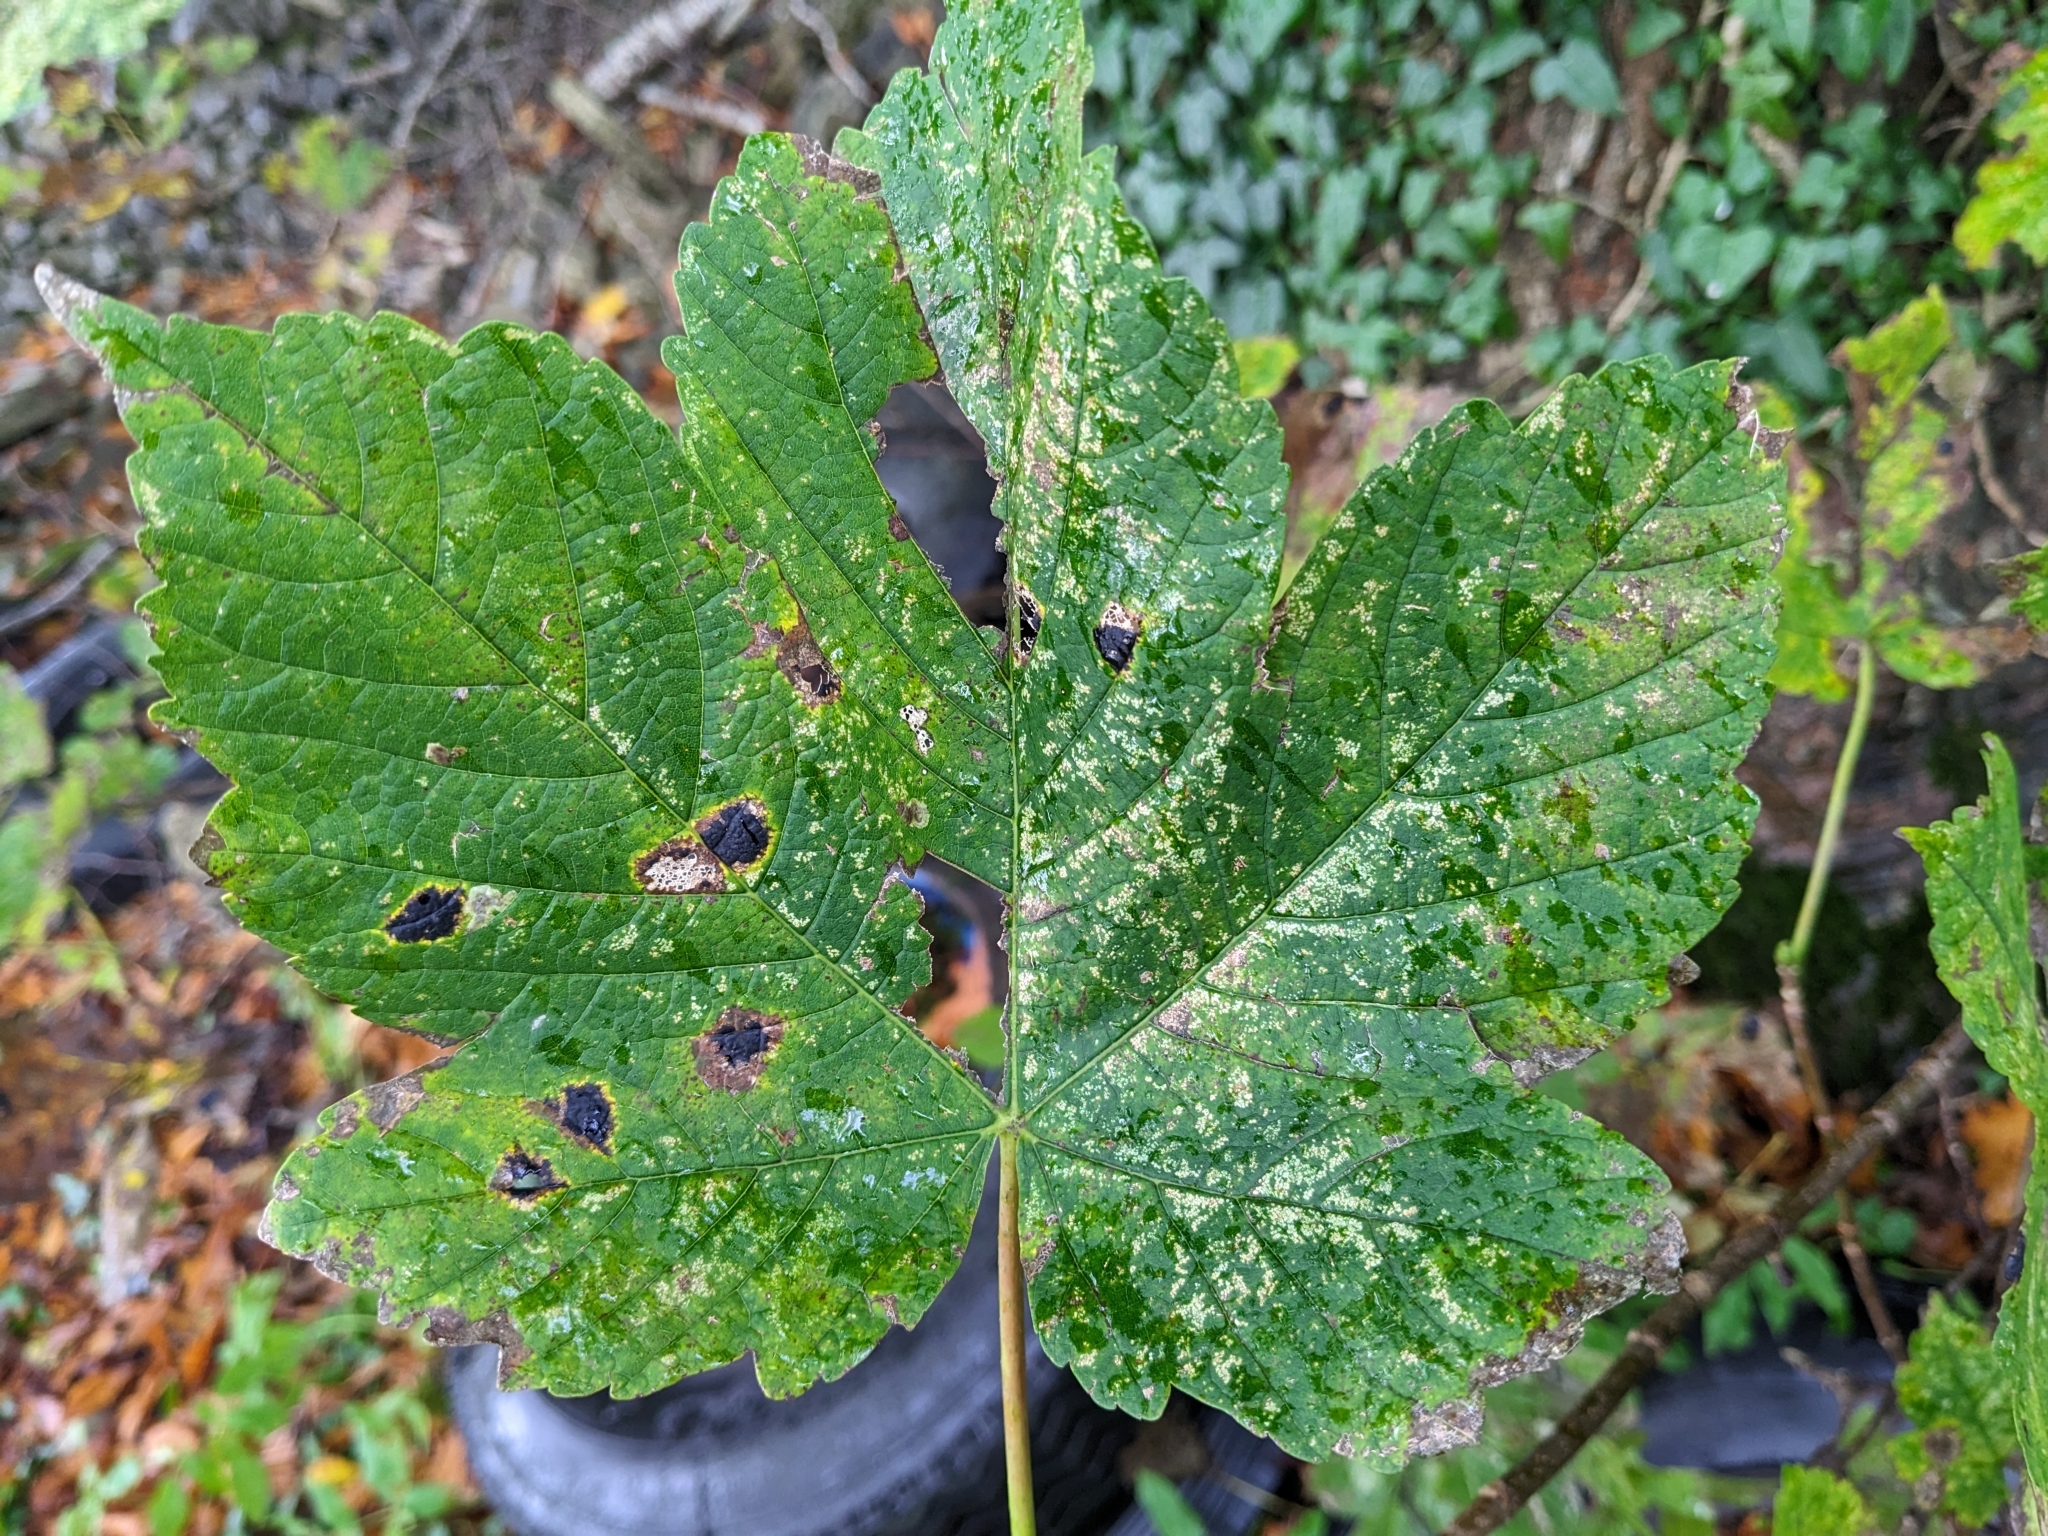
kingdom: Fungi
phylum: Ascomycota
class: Leotiomycetes
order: Rhytismatales
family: Rhytismataceae
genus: Rhytisma
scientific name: Rhytisma acerinum
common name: European tar spot
